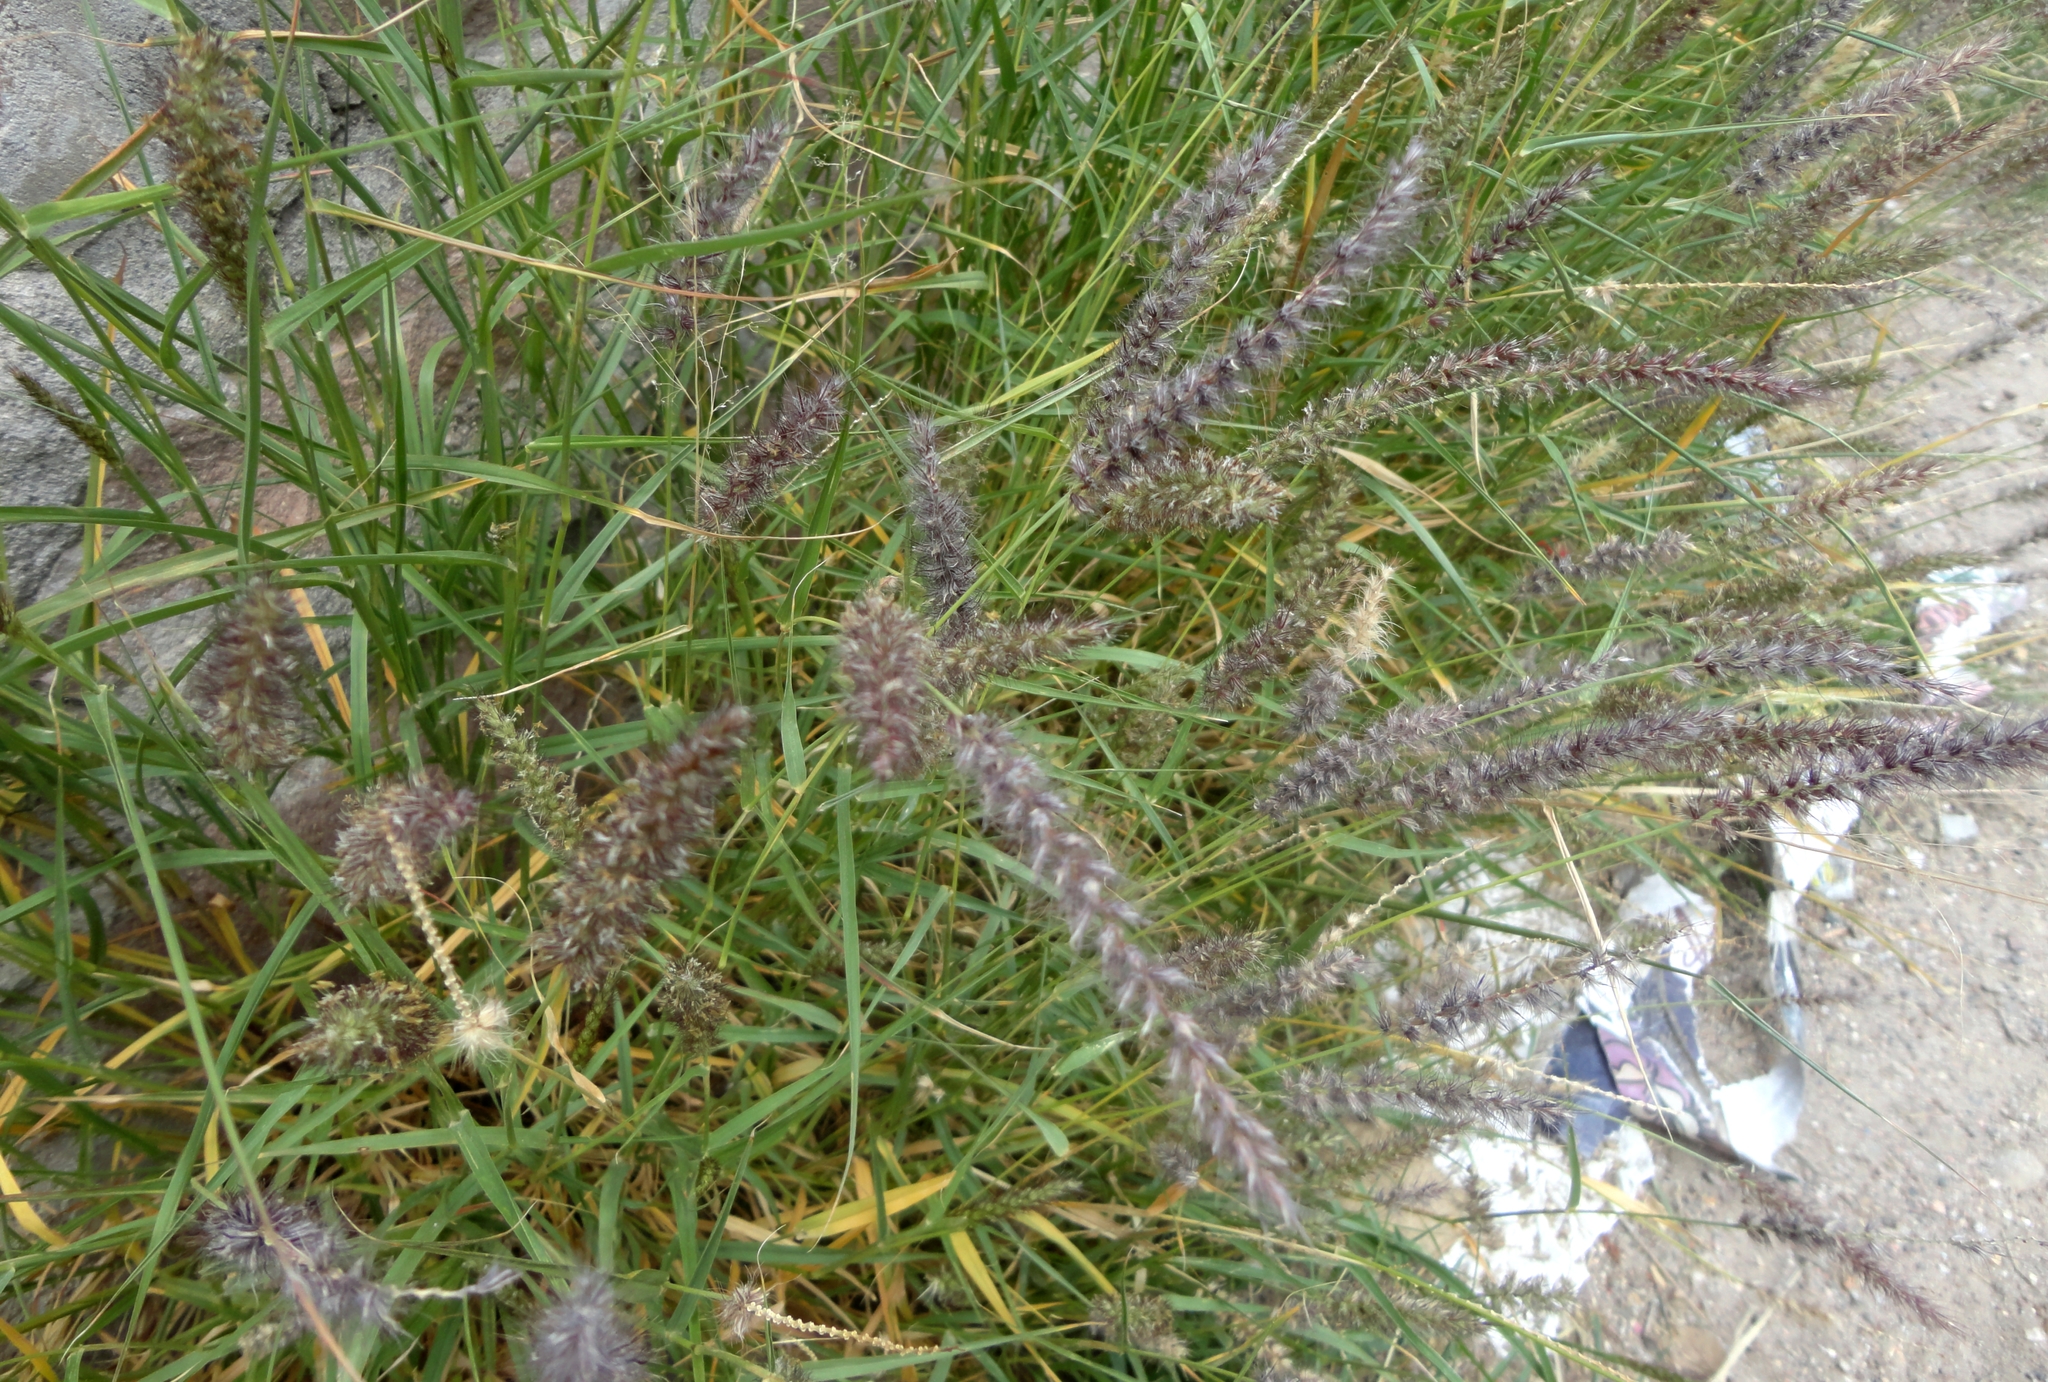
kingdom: Plantae
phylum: Tracheophyta
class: Liliopsida
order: Poales
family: Poaceae
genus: Cenchrus
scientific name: Cenchrus ciliaris
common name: Buffelgrass
